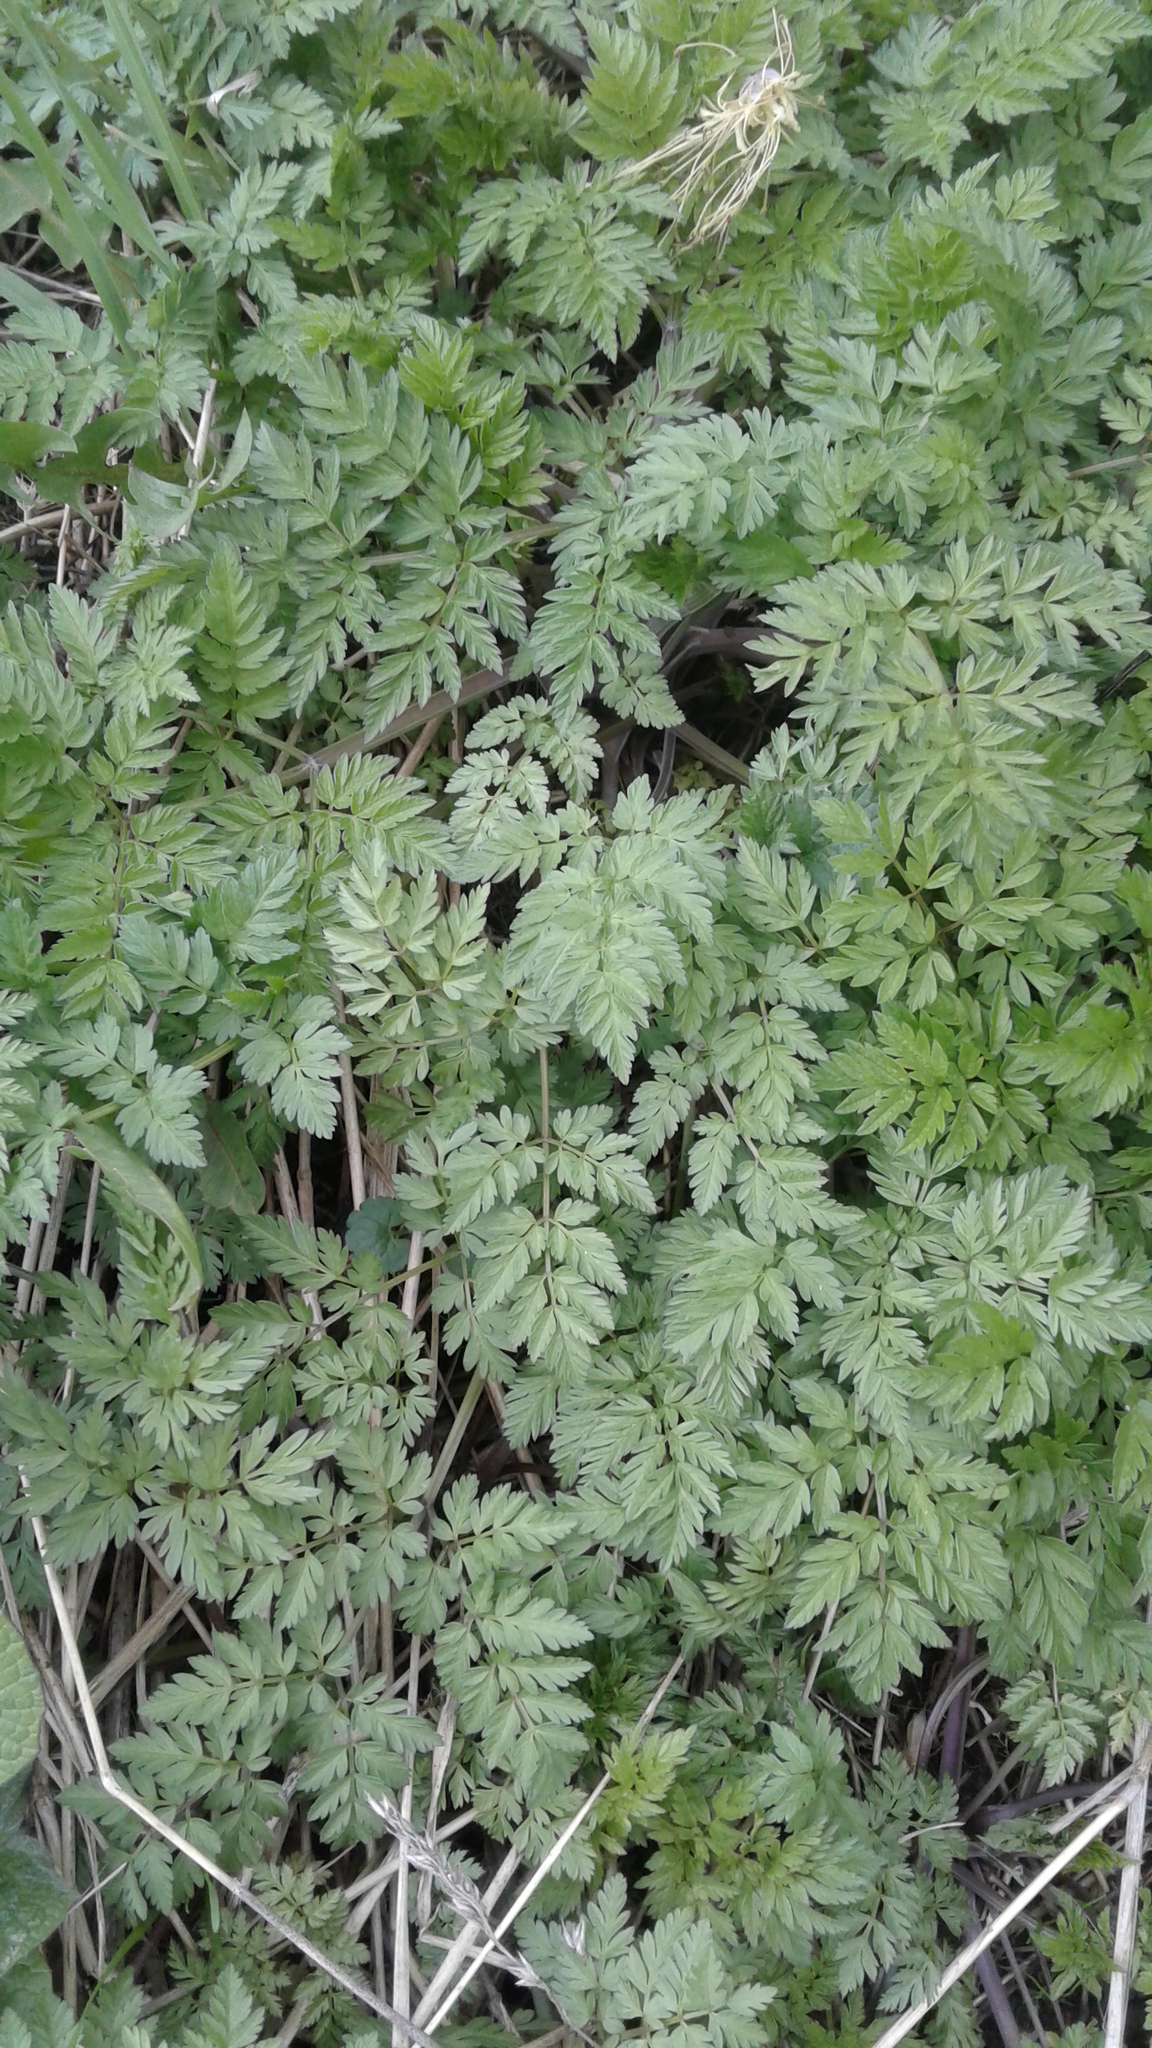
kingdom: Plantae
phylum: Tracheophyta
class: Magnoliopsida
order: Apiales
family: Apiaceae
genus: Anthriscus
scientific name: Anthriscus sylvestris
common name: Cow parsley
